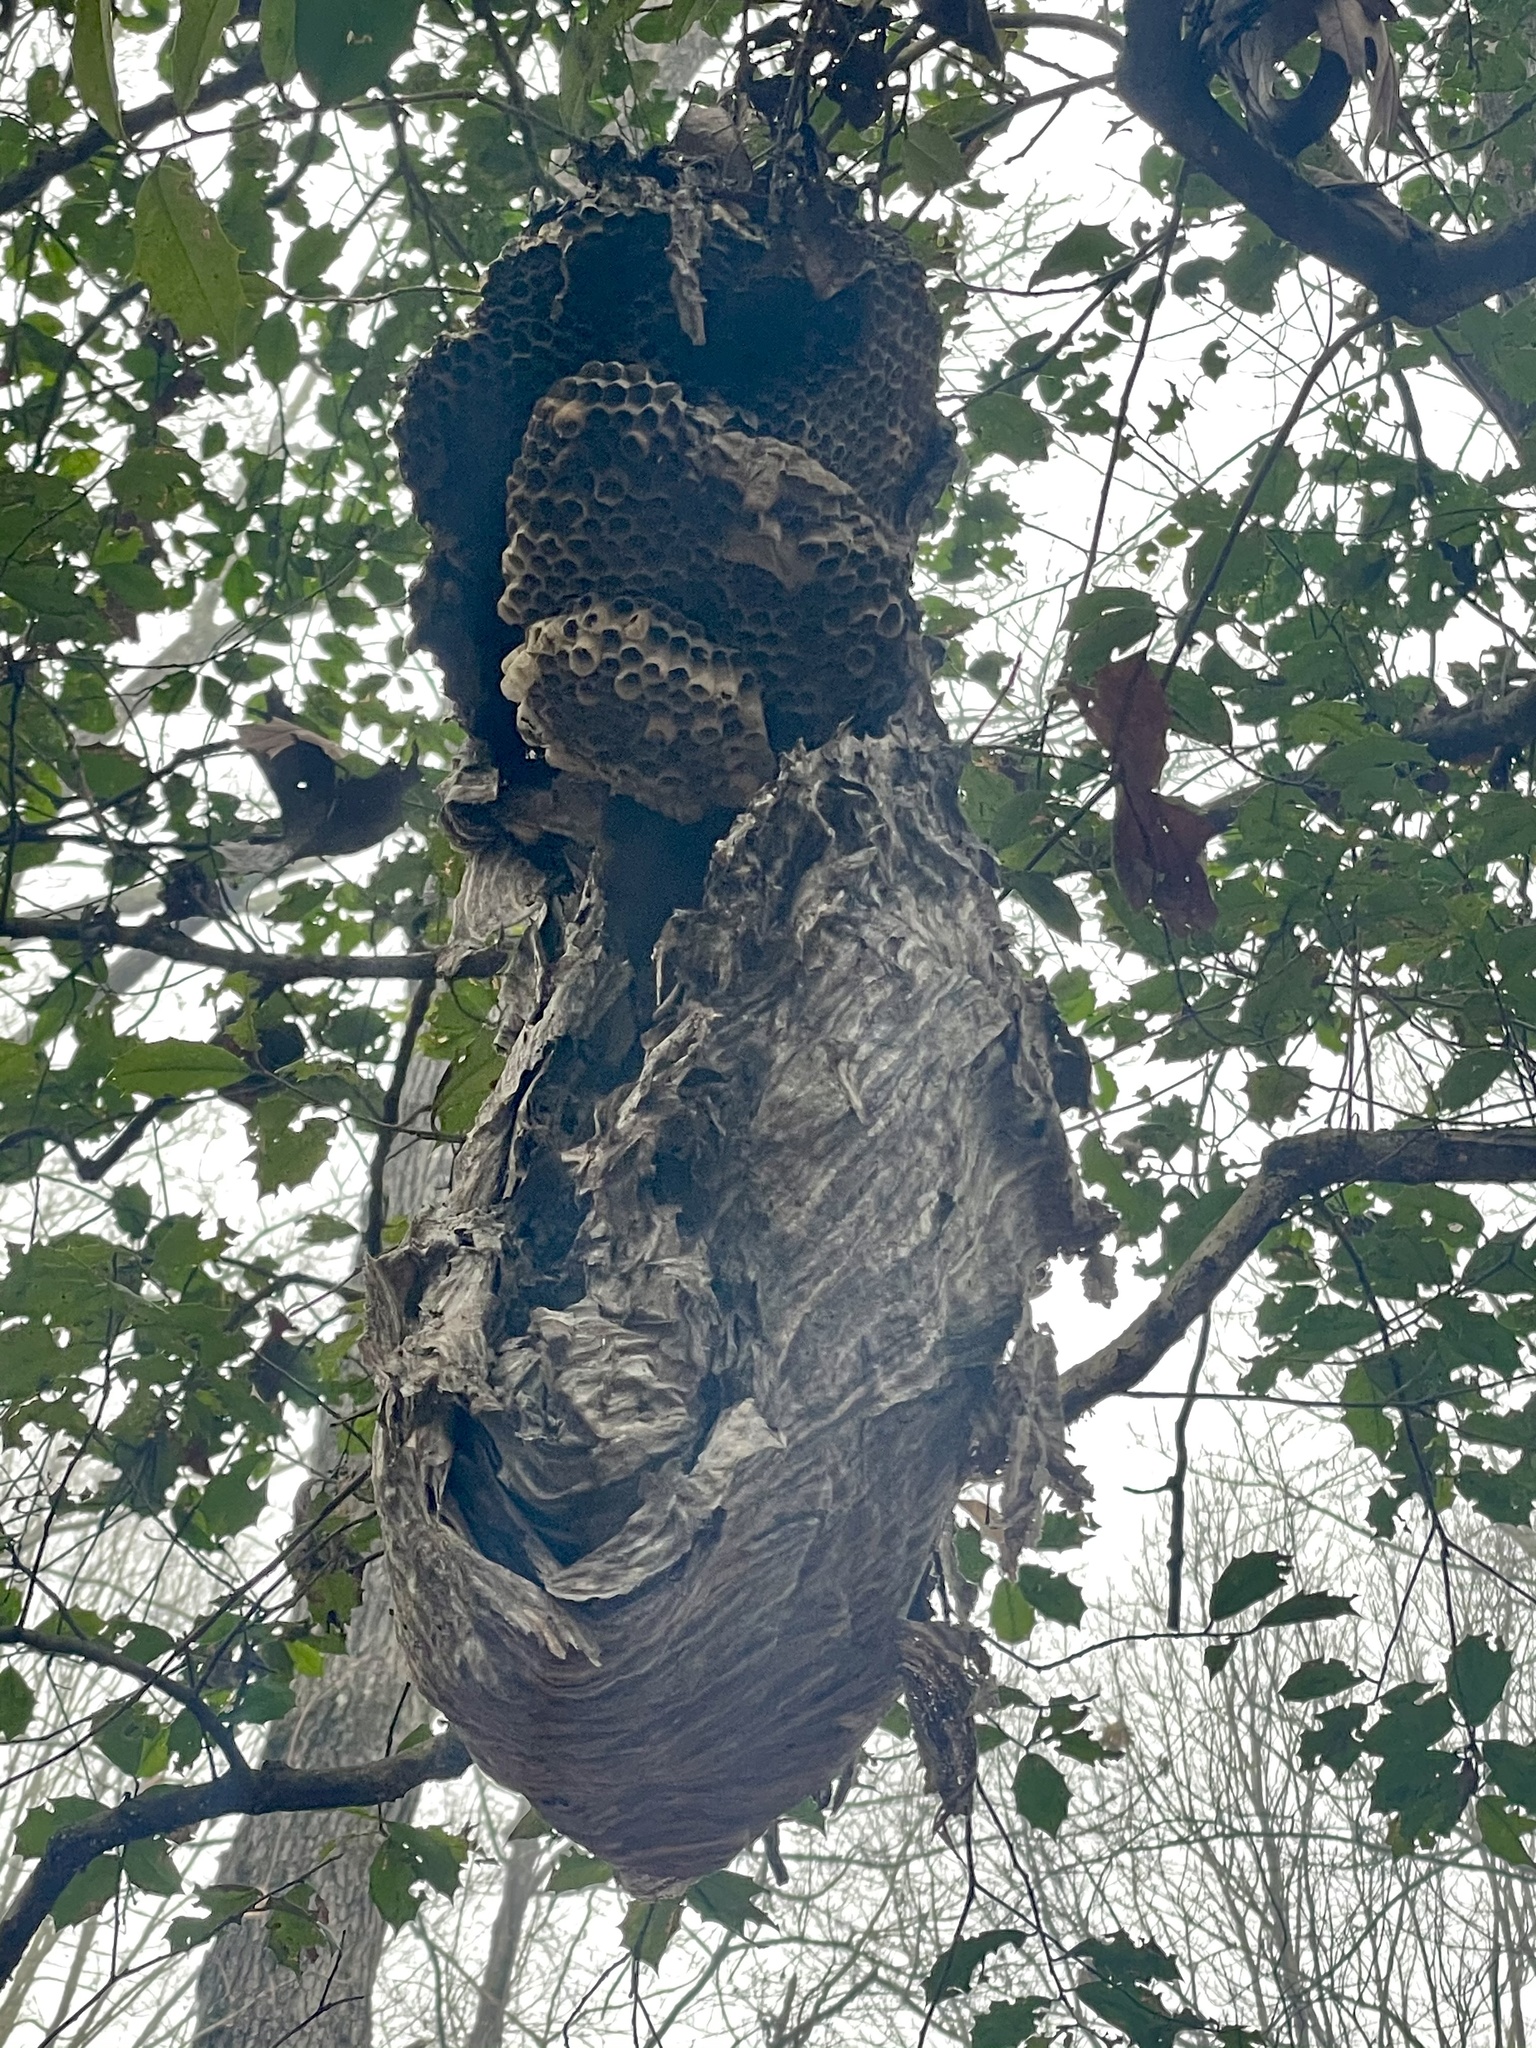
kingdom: Animalia
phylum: Arthropoda
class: Insecta
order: Hymenoptera
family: Vespidae
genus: Dolichovespula
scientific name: Dolichovespula maculata
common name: Bald-faced hornet
